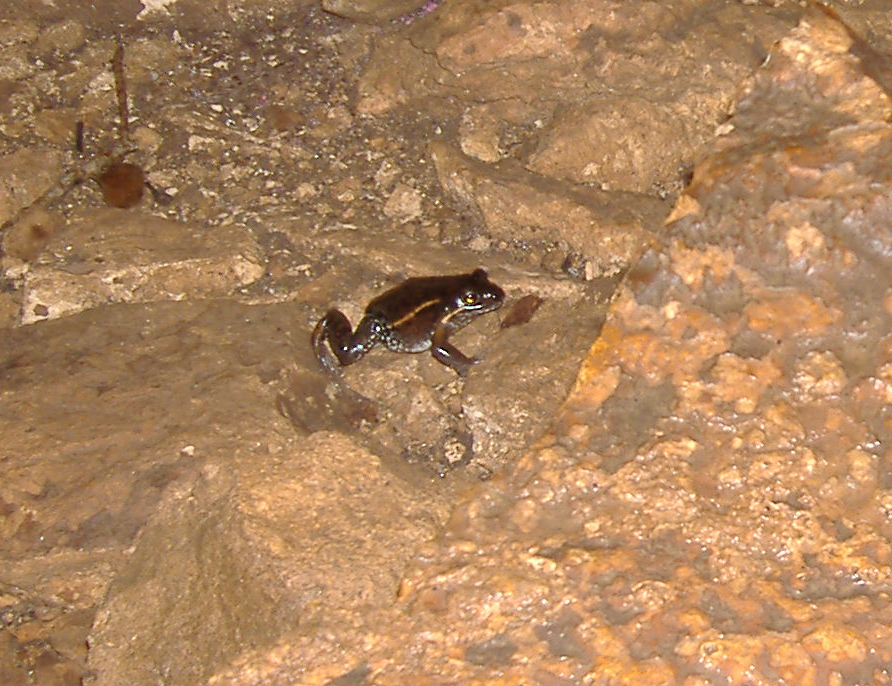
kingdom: Animalia
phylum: Chordata
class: Amphibia
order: Anura
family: Limnodynastidae
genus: Limnodynastes
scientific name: Limnodynastes salmini
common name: Salmon-striped frog
